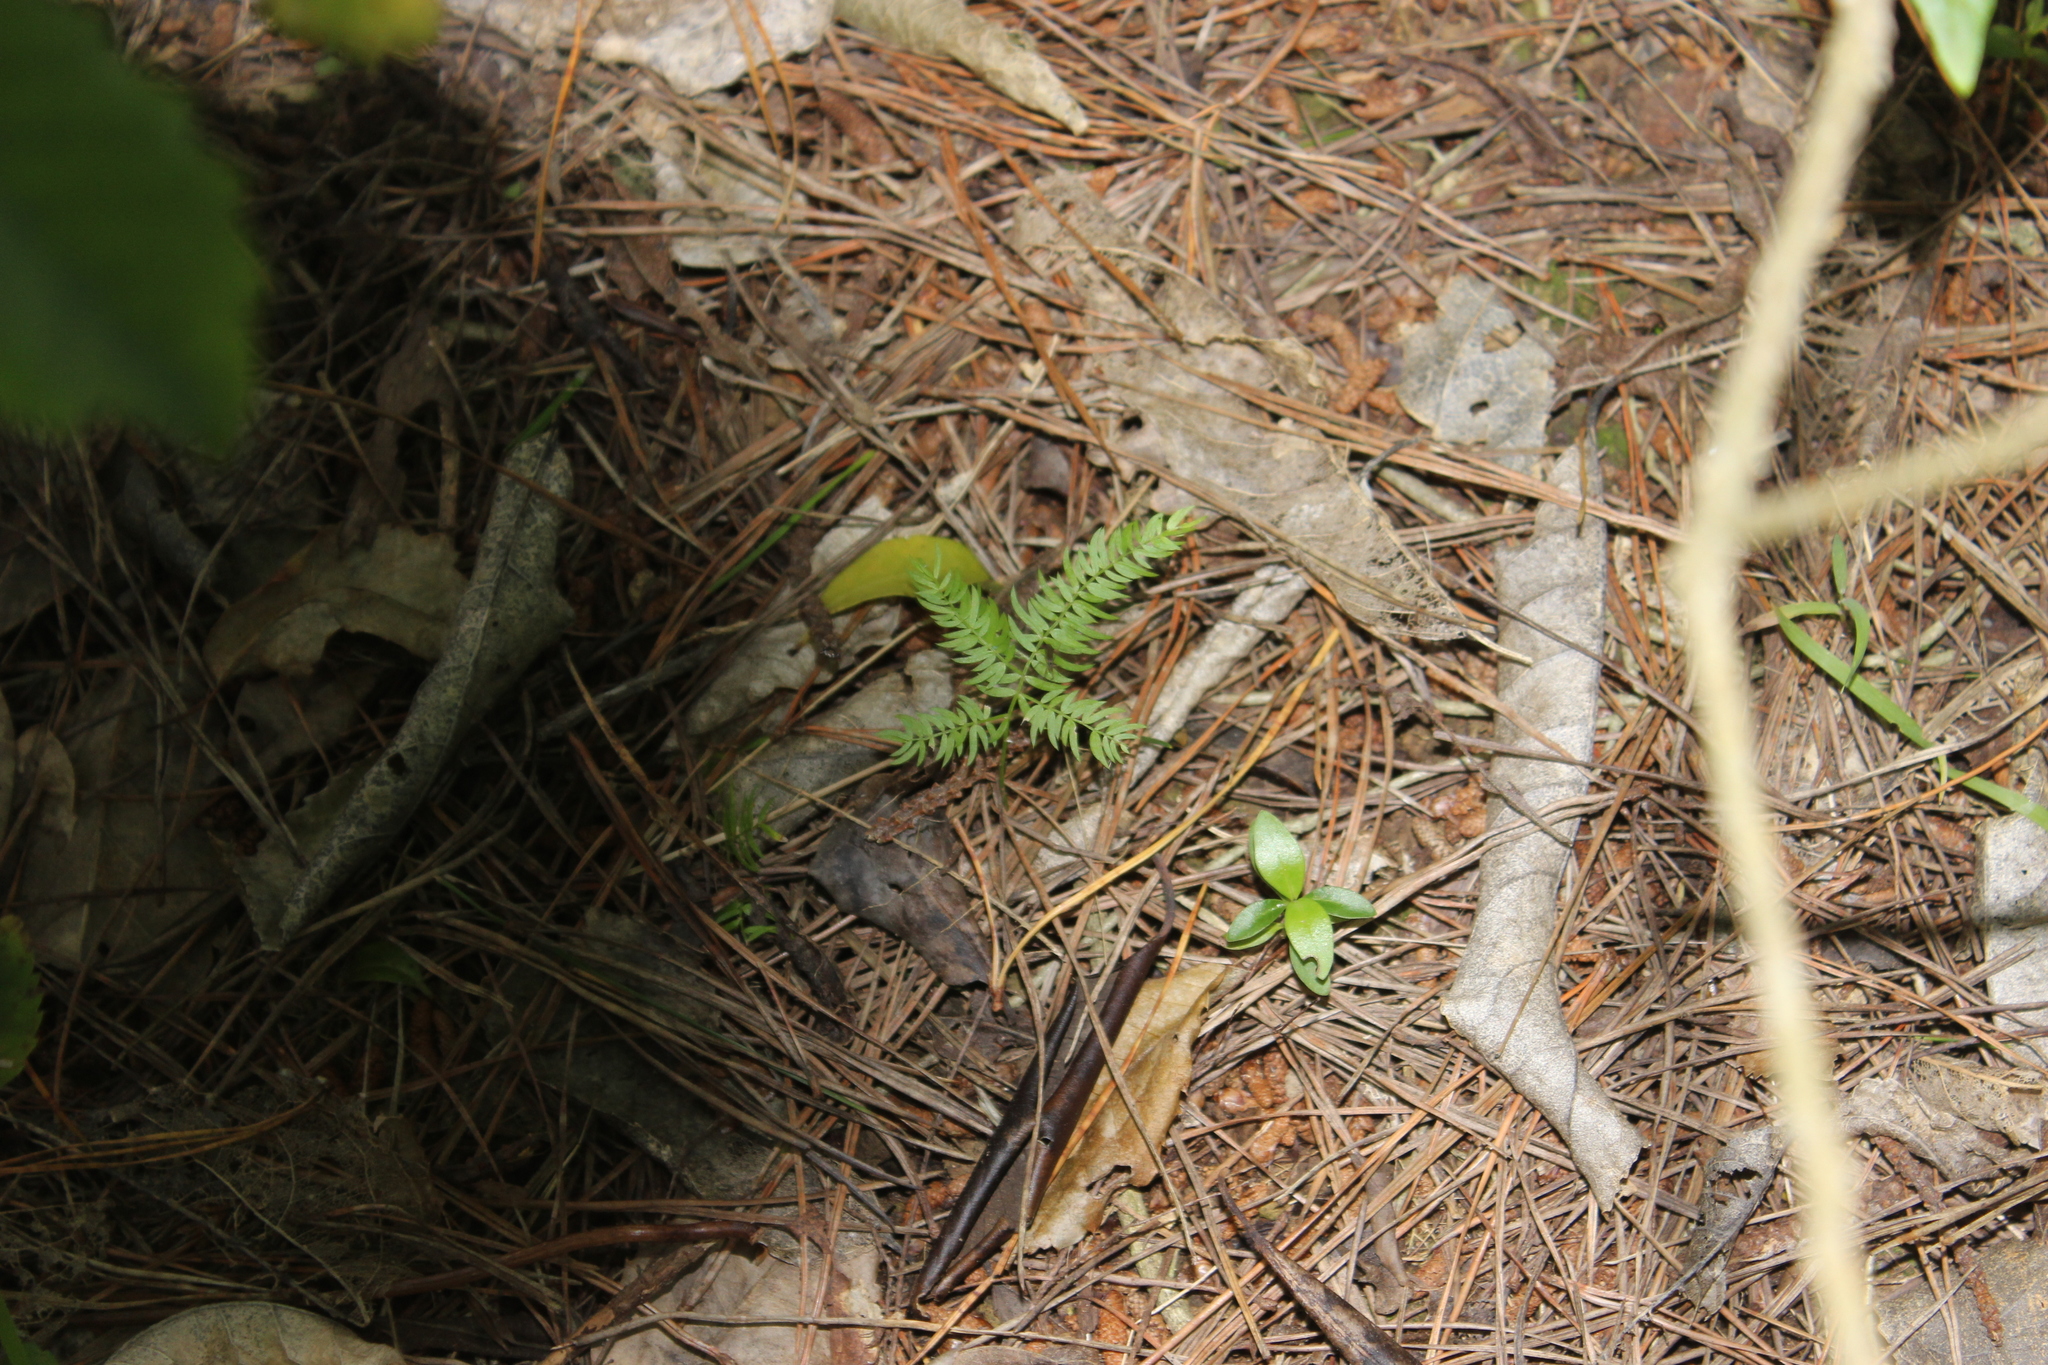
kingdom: Plantae
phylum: Tracheophyta
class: Liliopsida
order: Asparagales
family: Asparagaceae
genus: Asparagus
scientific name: Asparagus scandens
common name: Asparagus-fern
